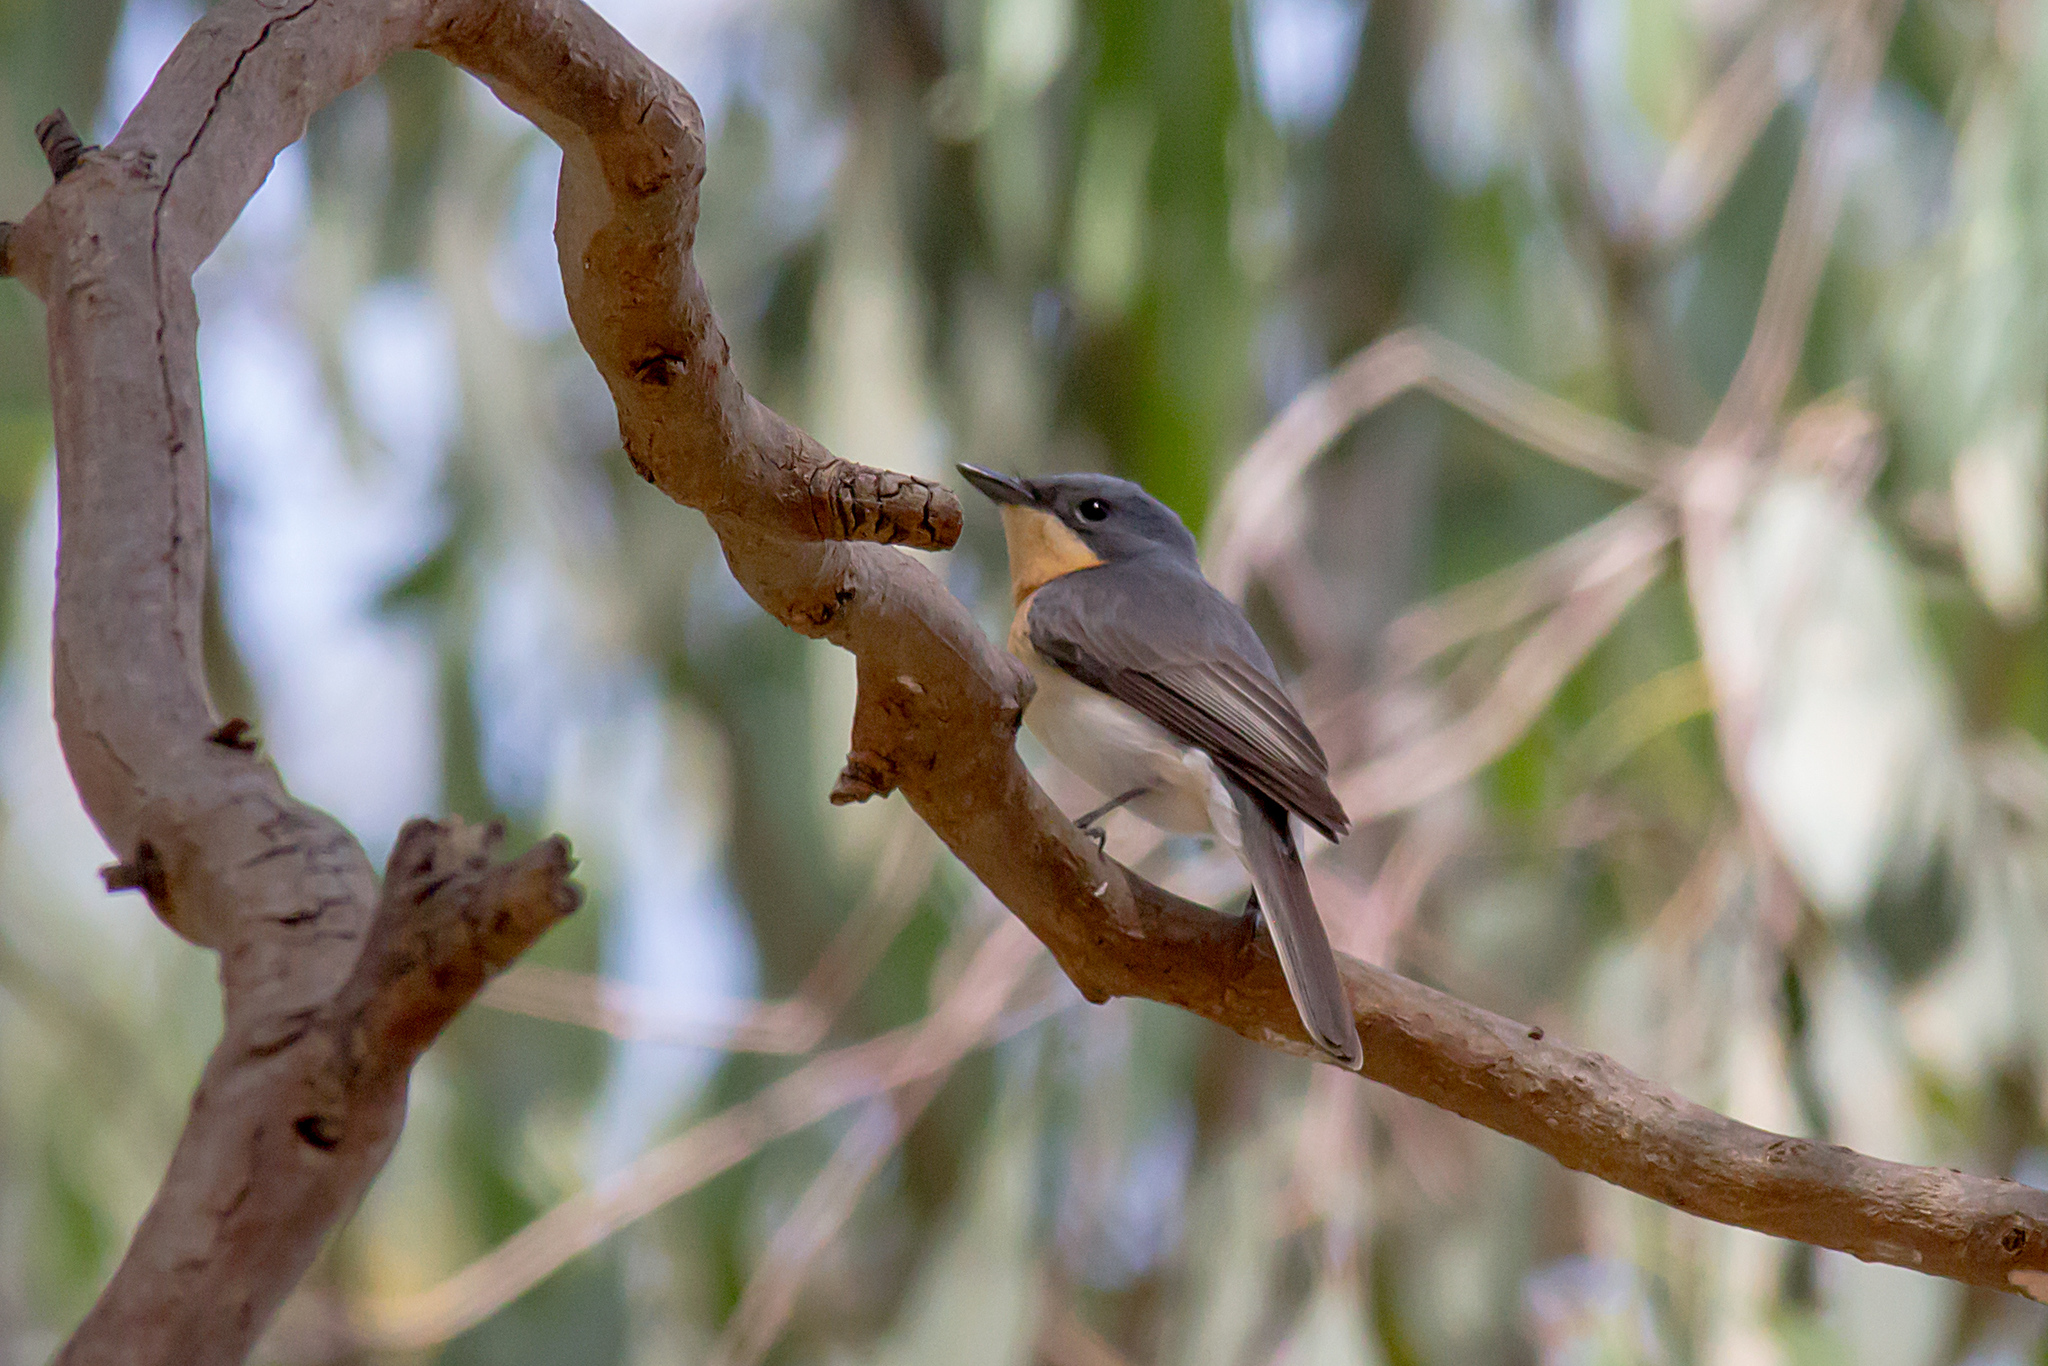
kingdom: Animalia
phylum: Chordata
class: Aves
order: Passeriformes
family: Monarchidae
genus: Myiagra
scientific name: Myiagra rubecula
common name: Leaden flycatcher
